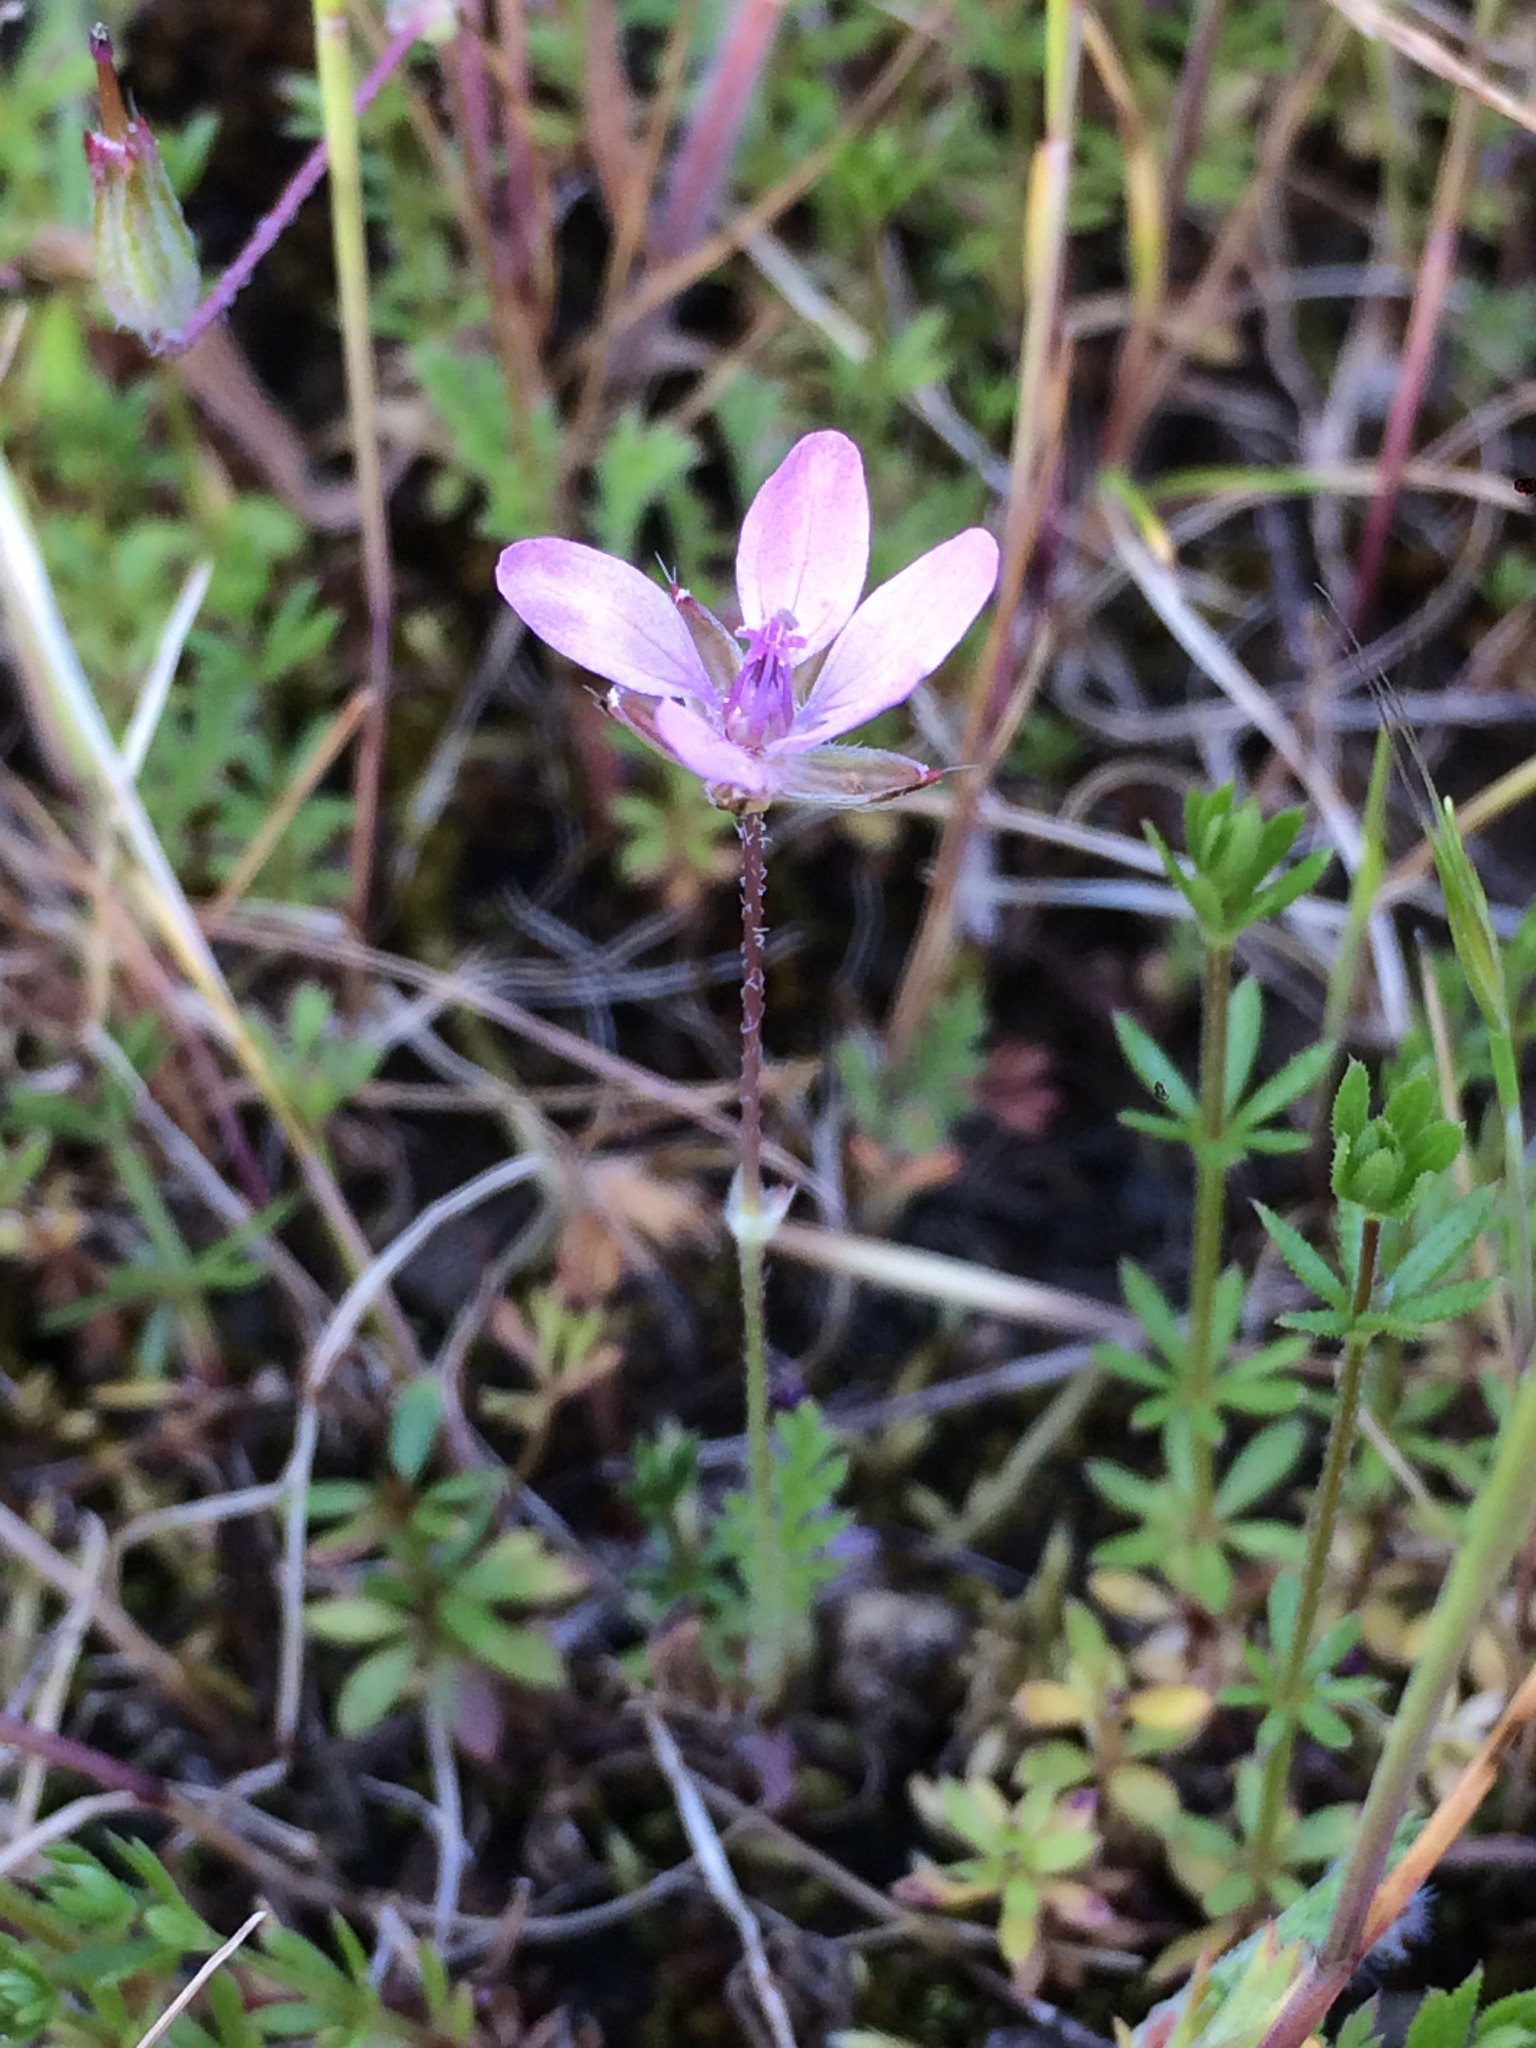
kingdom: Plantae
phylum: Tracheophyta
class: Magnoliopsida
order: Geraniales
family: Geraniaceae
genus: Erodium
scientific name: Erodium cicutarium
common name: Common stork's-bill
